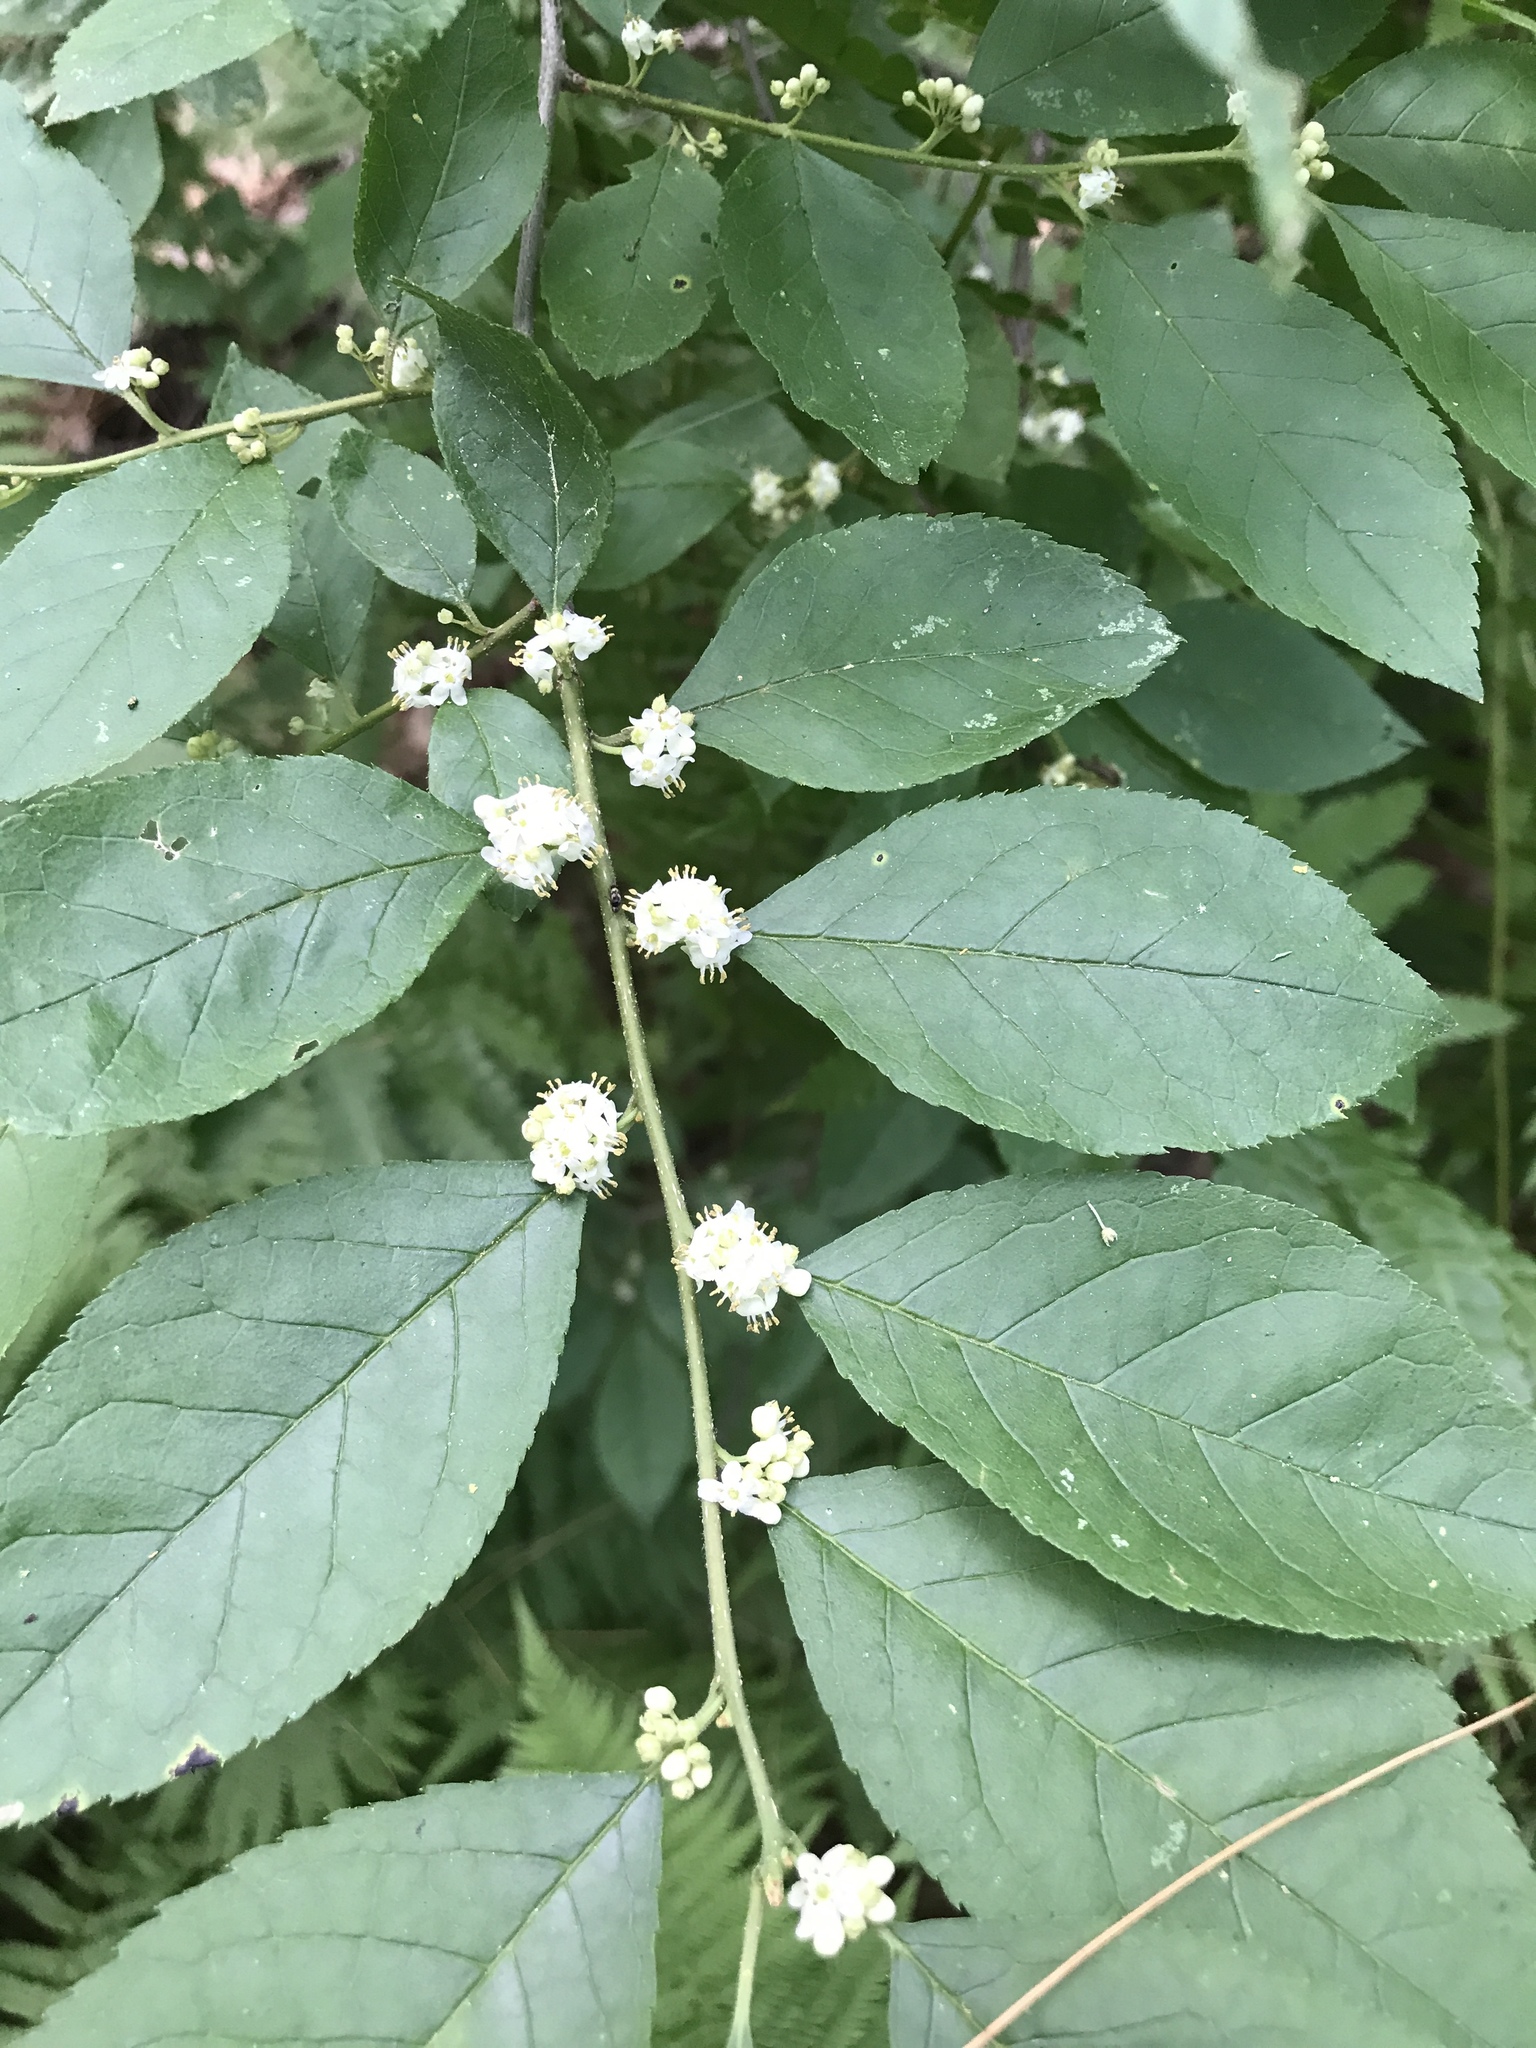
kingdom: Plantae
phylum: Tracheophyta
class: Magnoliopsida
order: Aquifoliales
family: Aquifoliaceae
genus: Ilex
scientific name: Ilex verticillata
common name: Virginia winterberry
